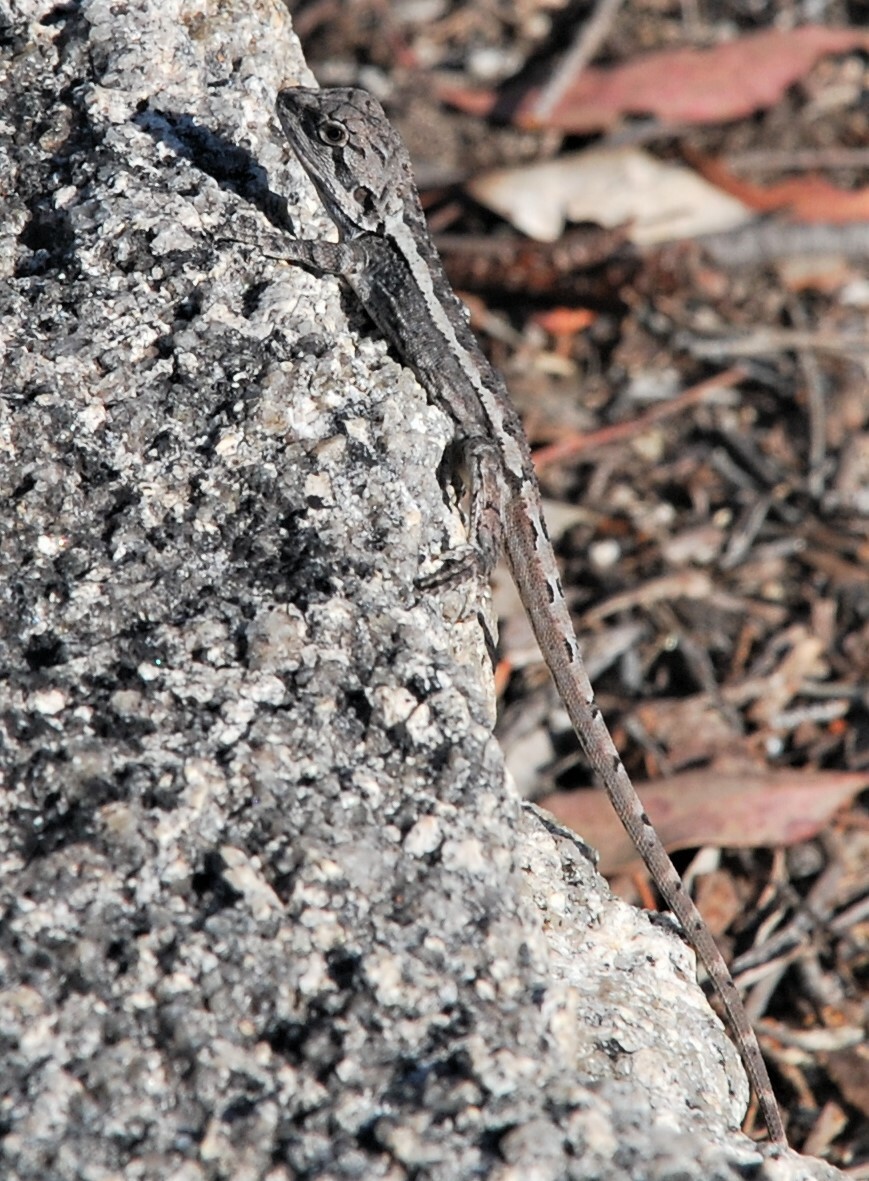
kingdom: Animalia
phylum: Chordata
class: Squamata
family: Agamidae
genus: Diporiphora
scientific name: Diporiphora nobbi
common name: Nobbi
